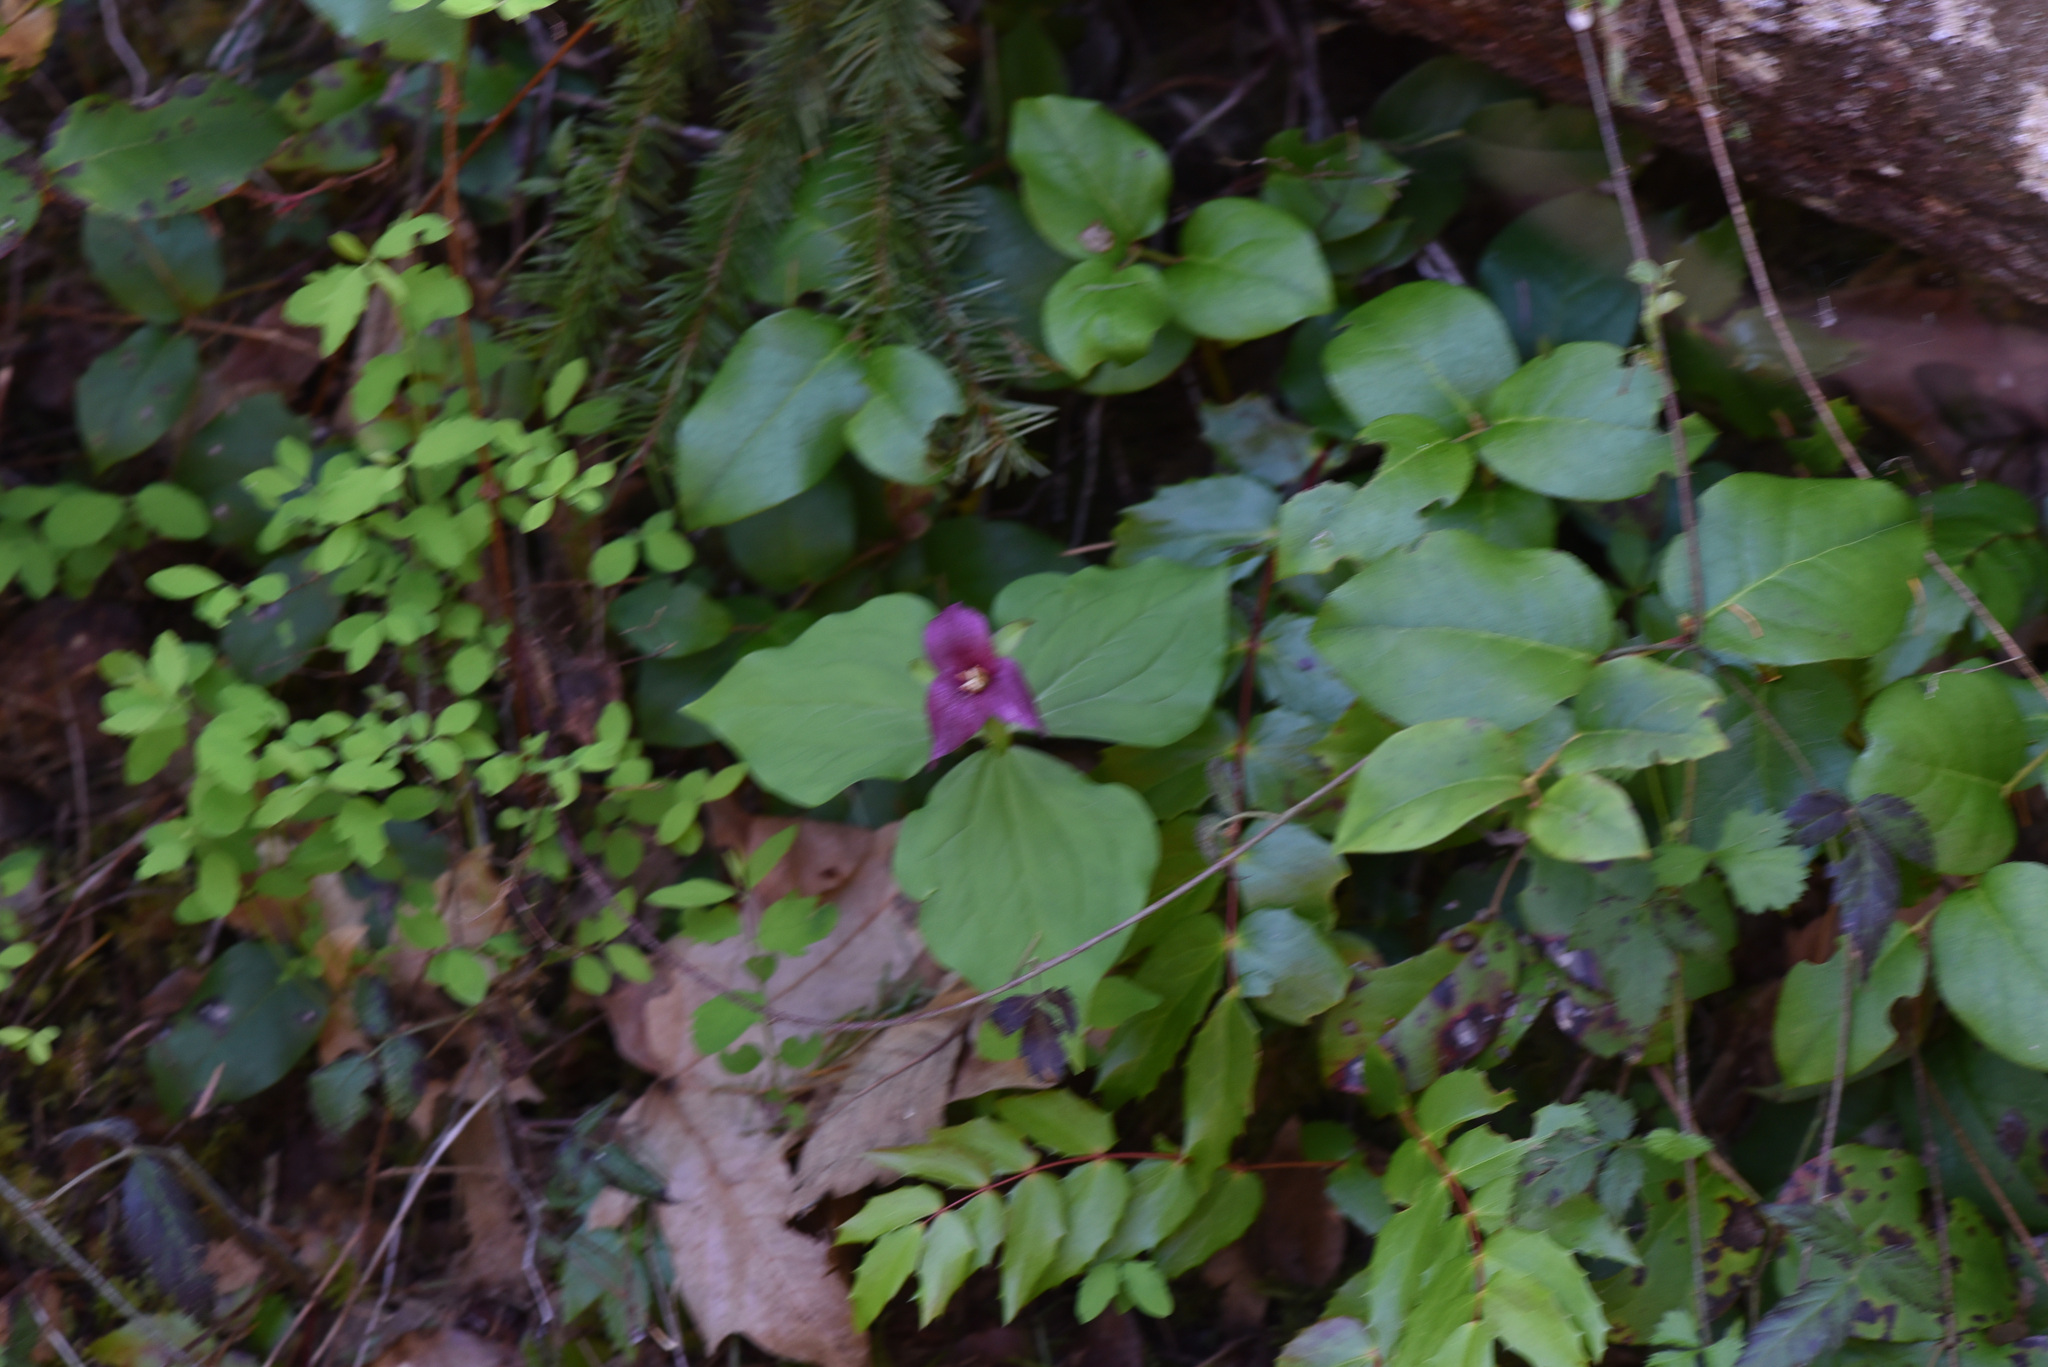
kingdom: Plantae
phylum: Tracheophyta
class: Liliopsida
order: Liliales
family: Melanthiaceae
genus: Trillium
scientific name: Trillium ovatum
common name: Pacific trillium
